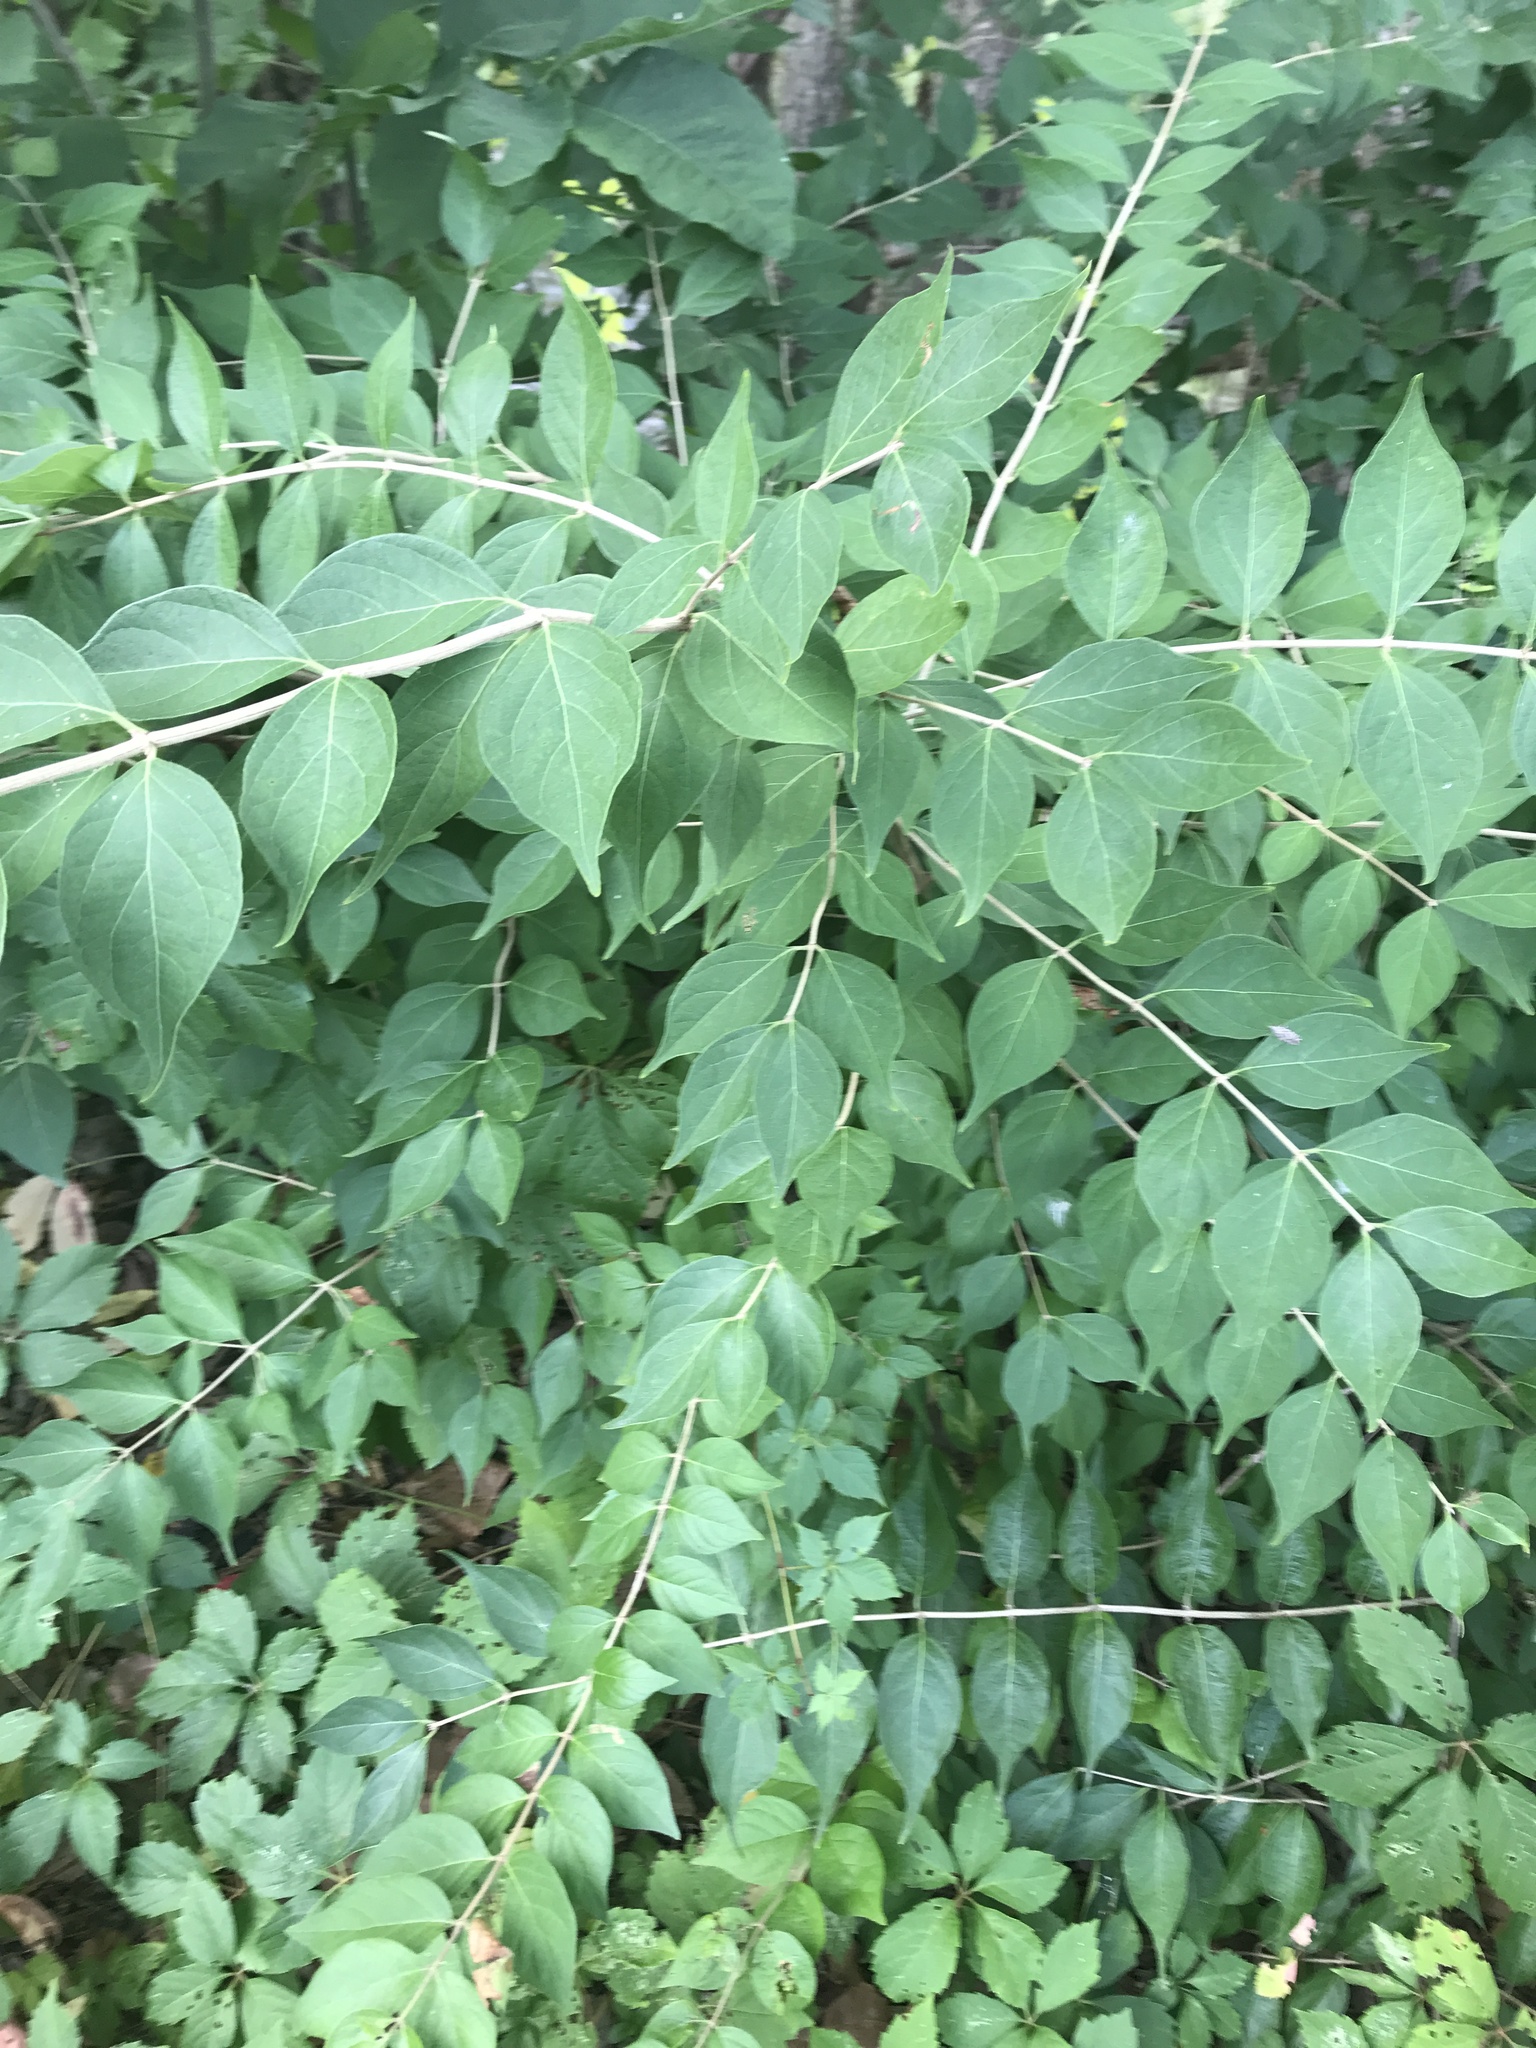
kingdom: Plantae
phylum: Tracheophyta
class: Magnoliopsida
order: Dipsacales
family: Caprifoliaceae
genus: Lonicera
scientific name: Lonicera maackii
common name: Amur honeysuckle
